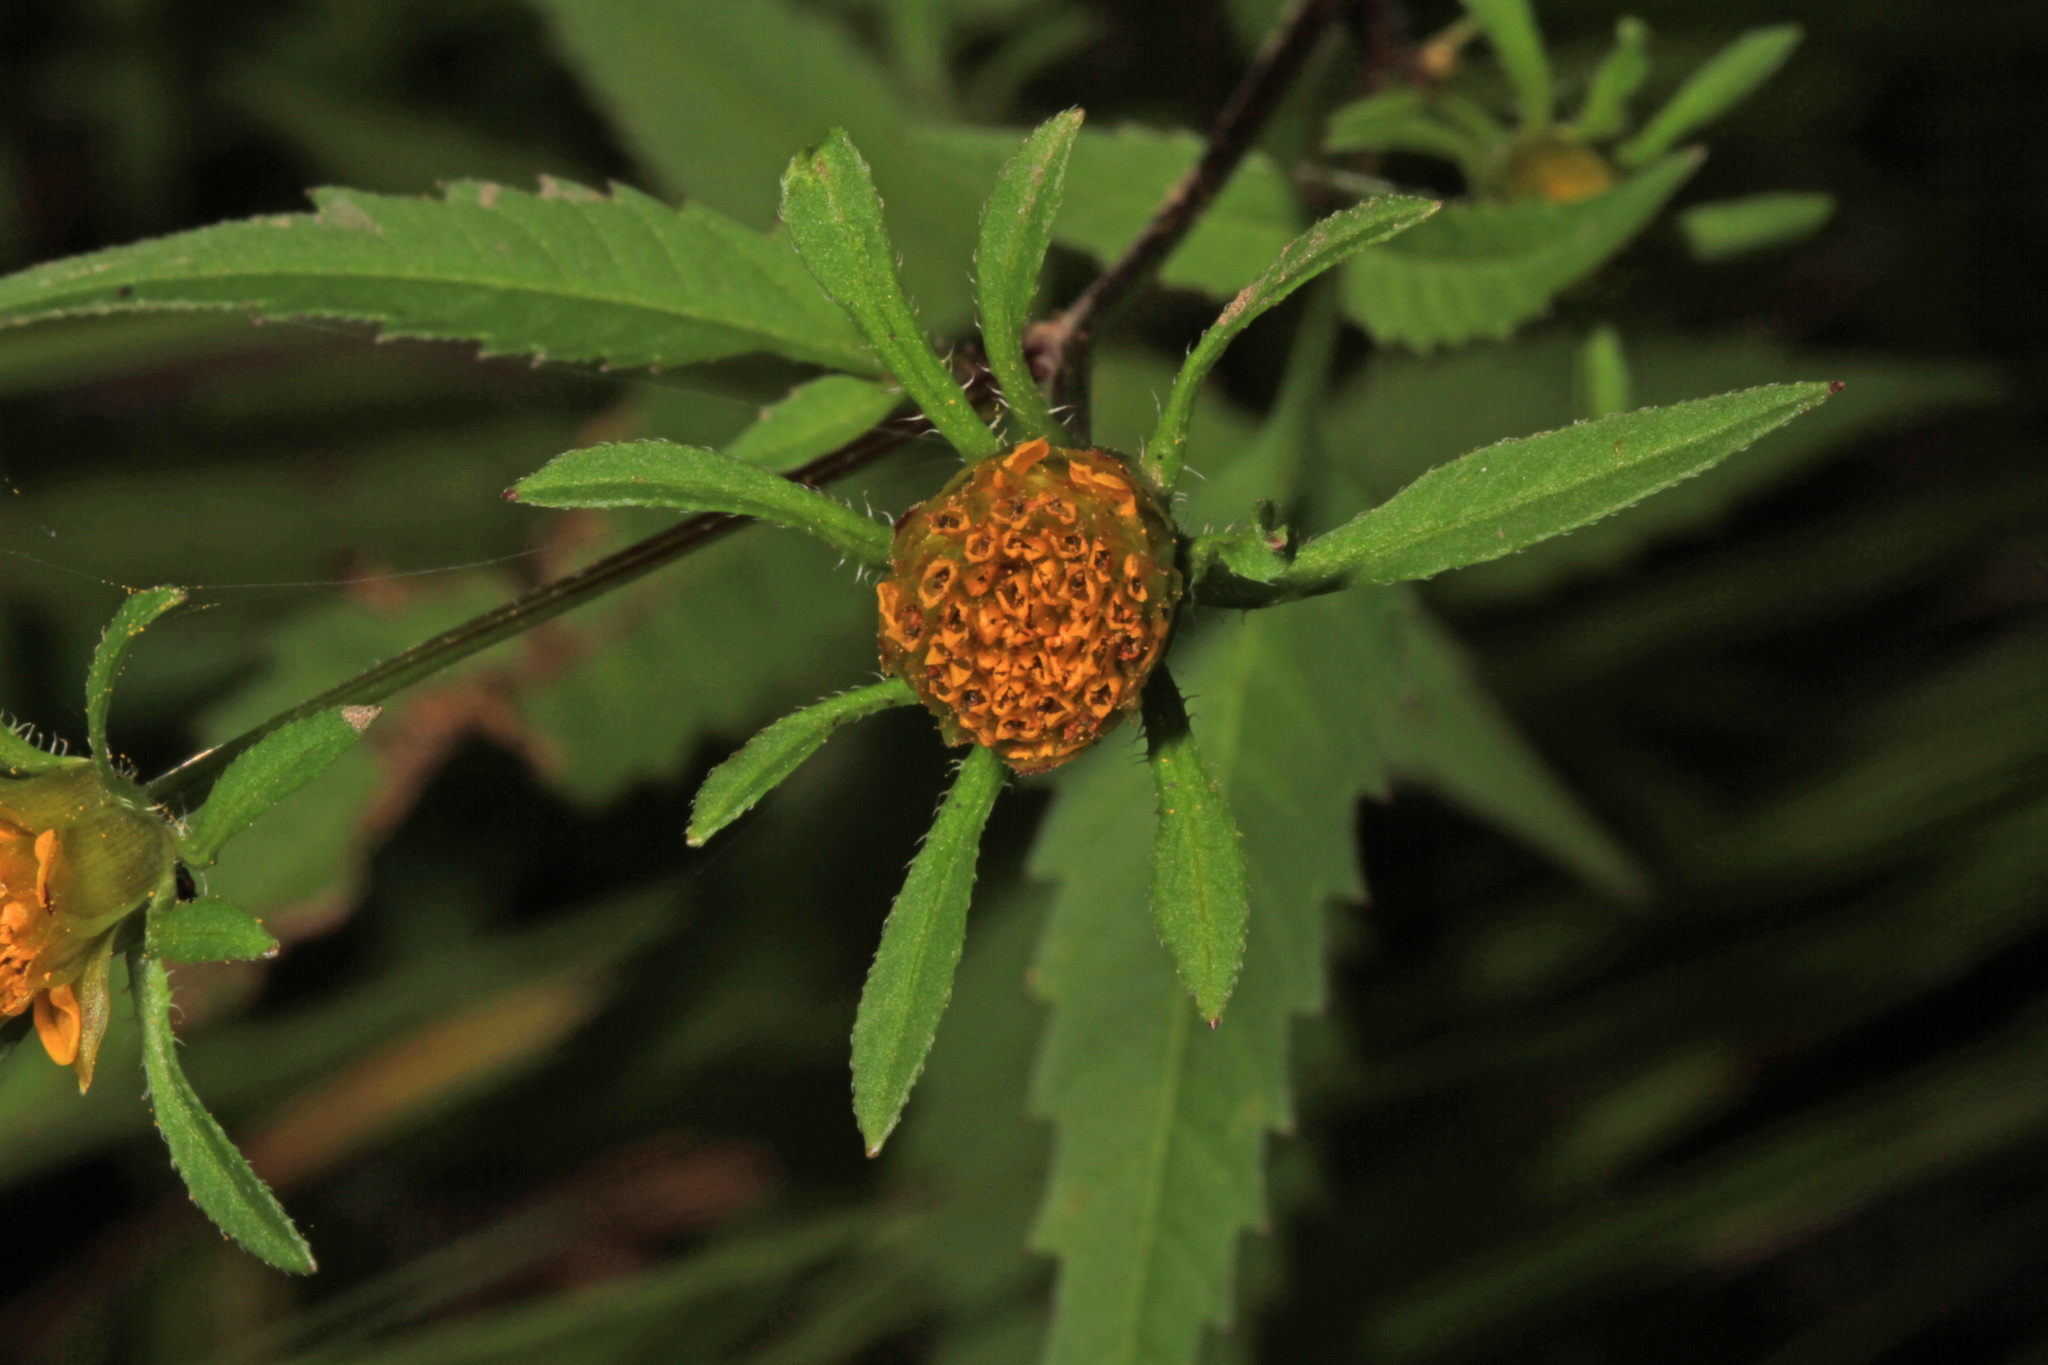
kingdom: Plantae
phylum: Tracheophyta
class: Magnoliopsida
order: Asterales
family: Asteraceae
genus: Bidens
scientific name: Bidens frondosa
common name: Beggarticks
